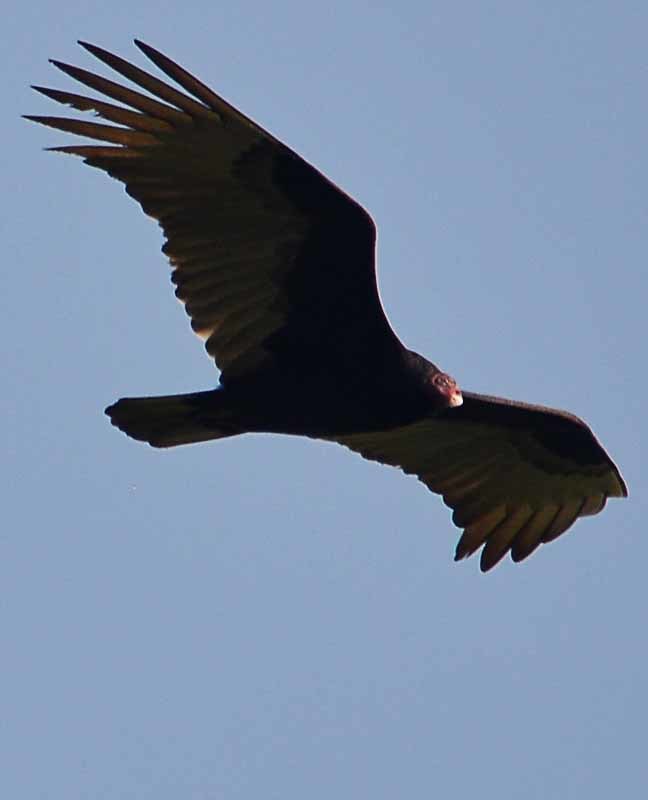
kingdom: Animalia
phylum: Chordata
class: Aves
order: Accipitriformes
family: Cathartidae
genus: Cathartes
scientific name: Cathartes aura
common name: Turkey vulture
